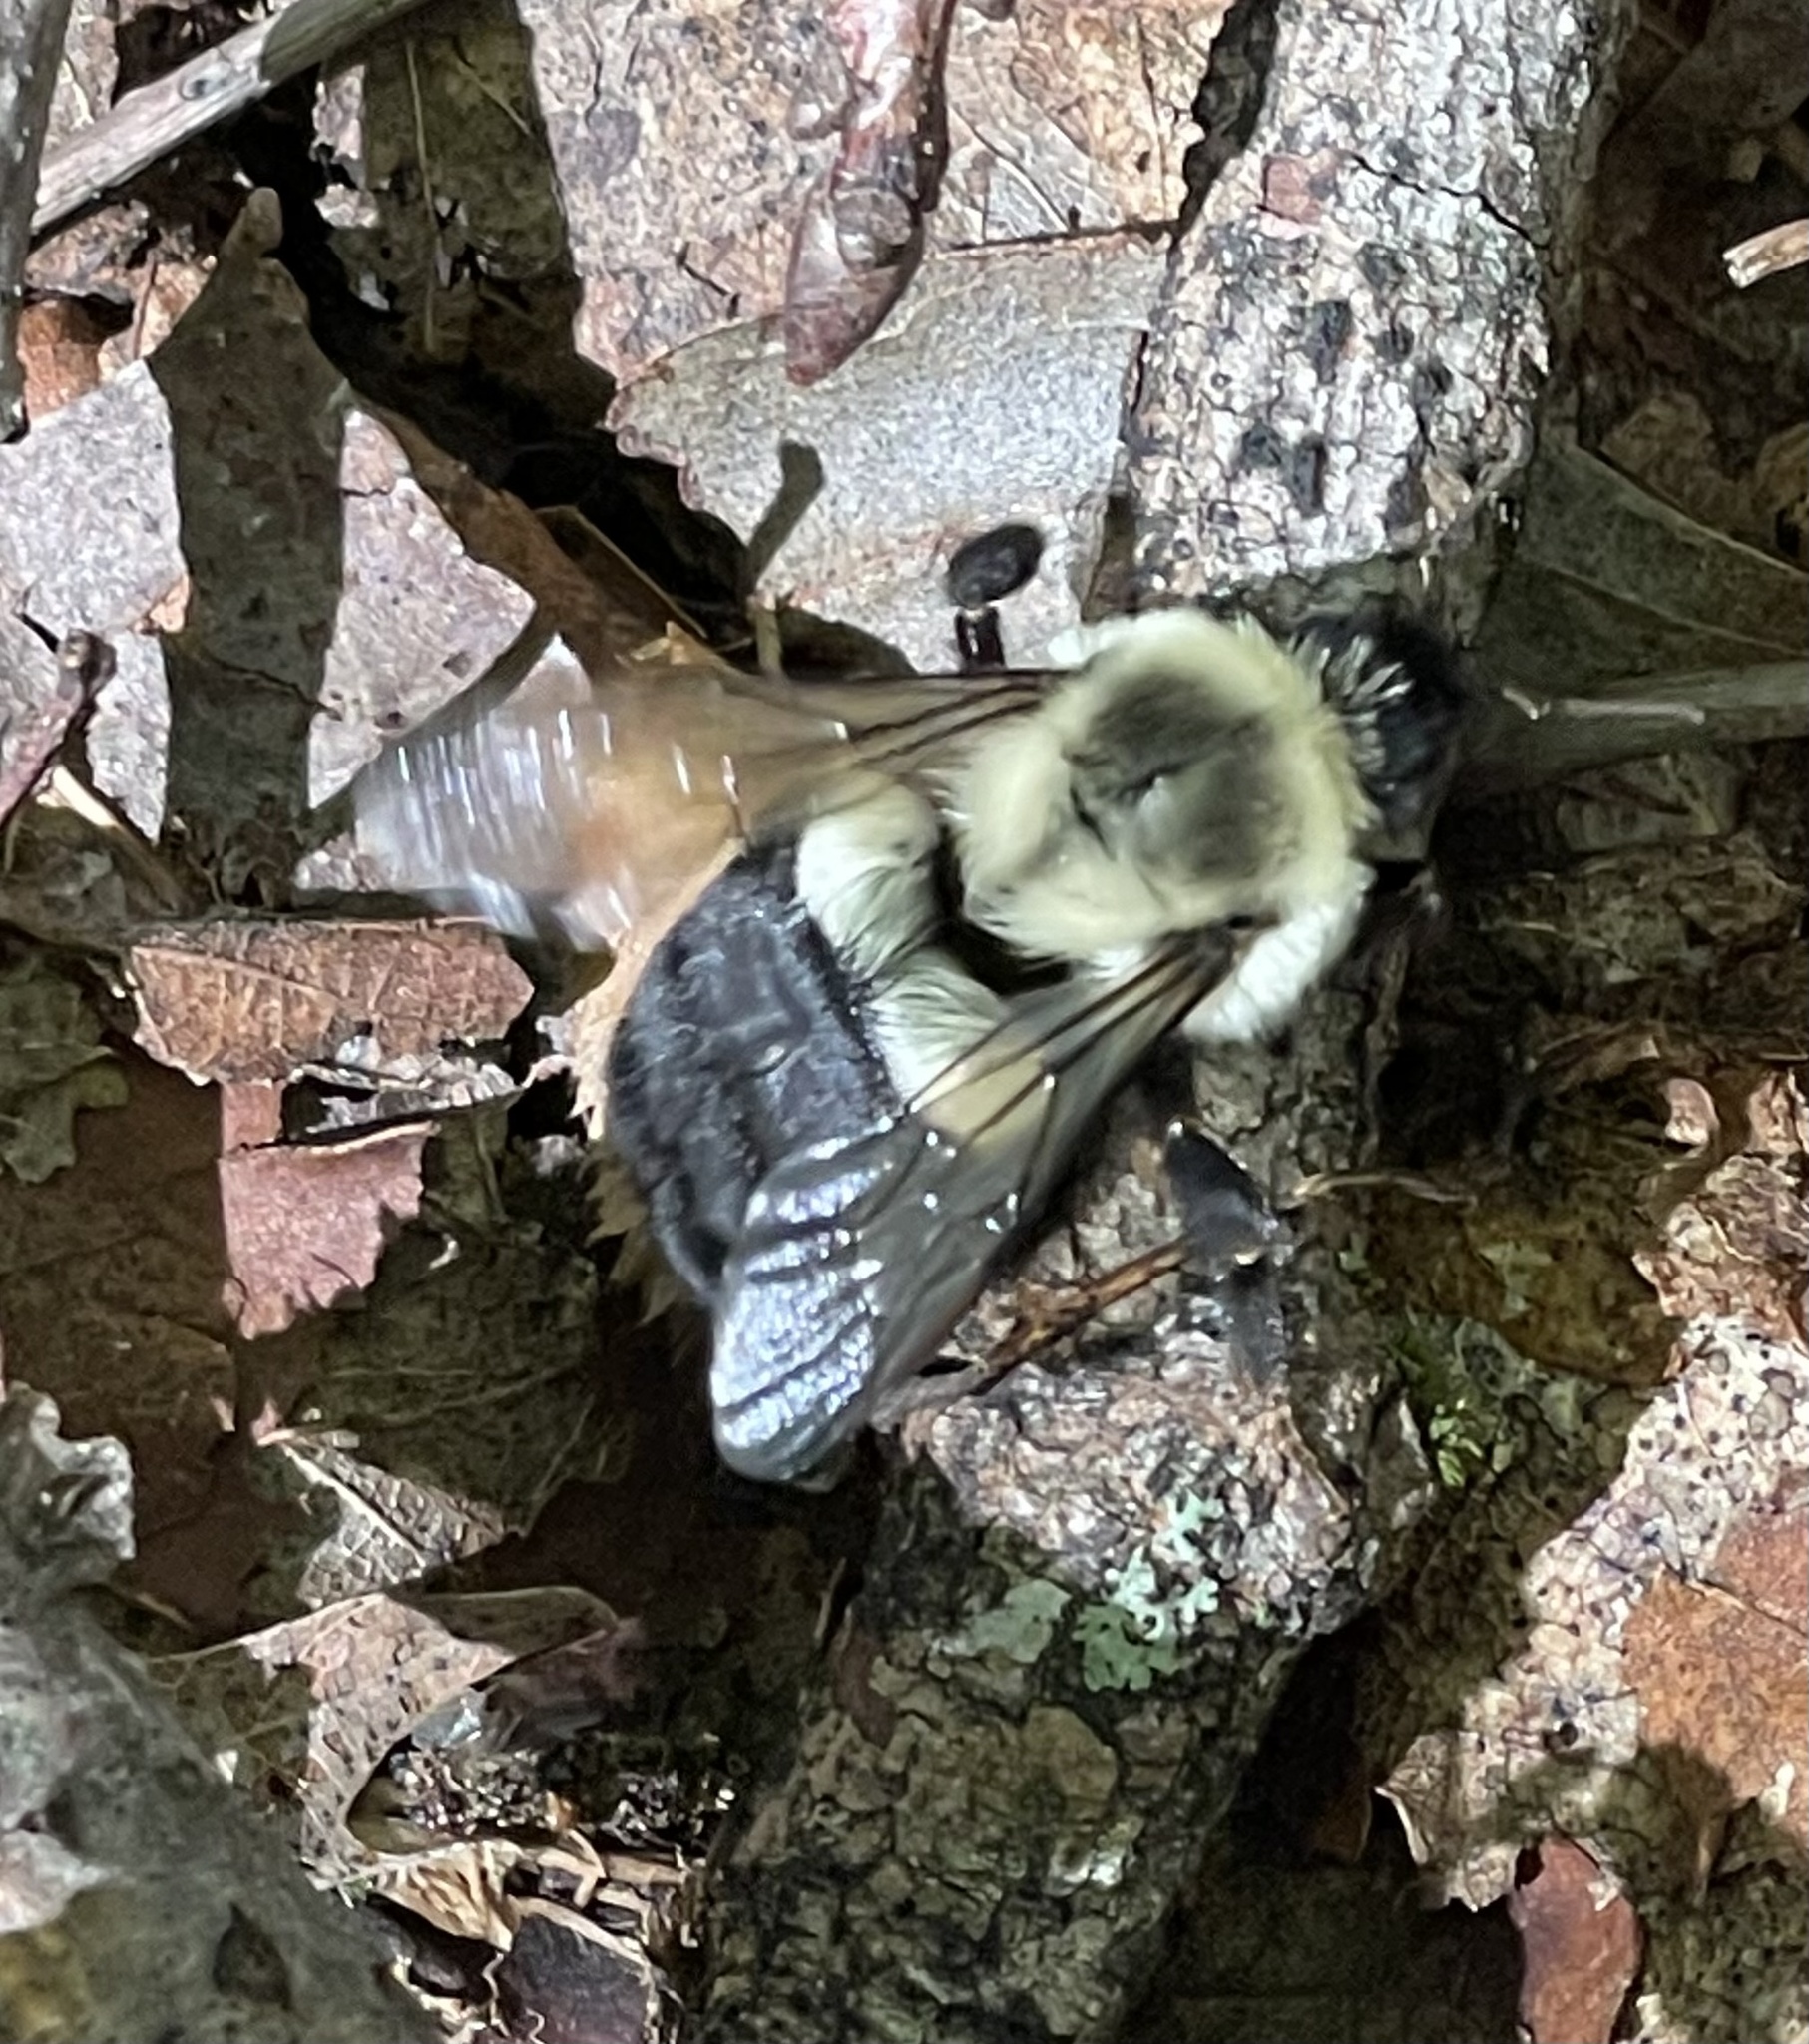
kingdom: Animalia
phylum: Arthropoda
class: Insecta
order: Hymenoptera
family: Apidae
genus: Bombus
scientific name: Bombus impatiens
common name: Common eastern bumble bee
